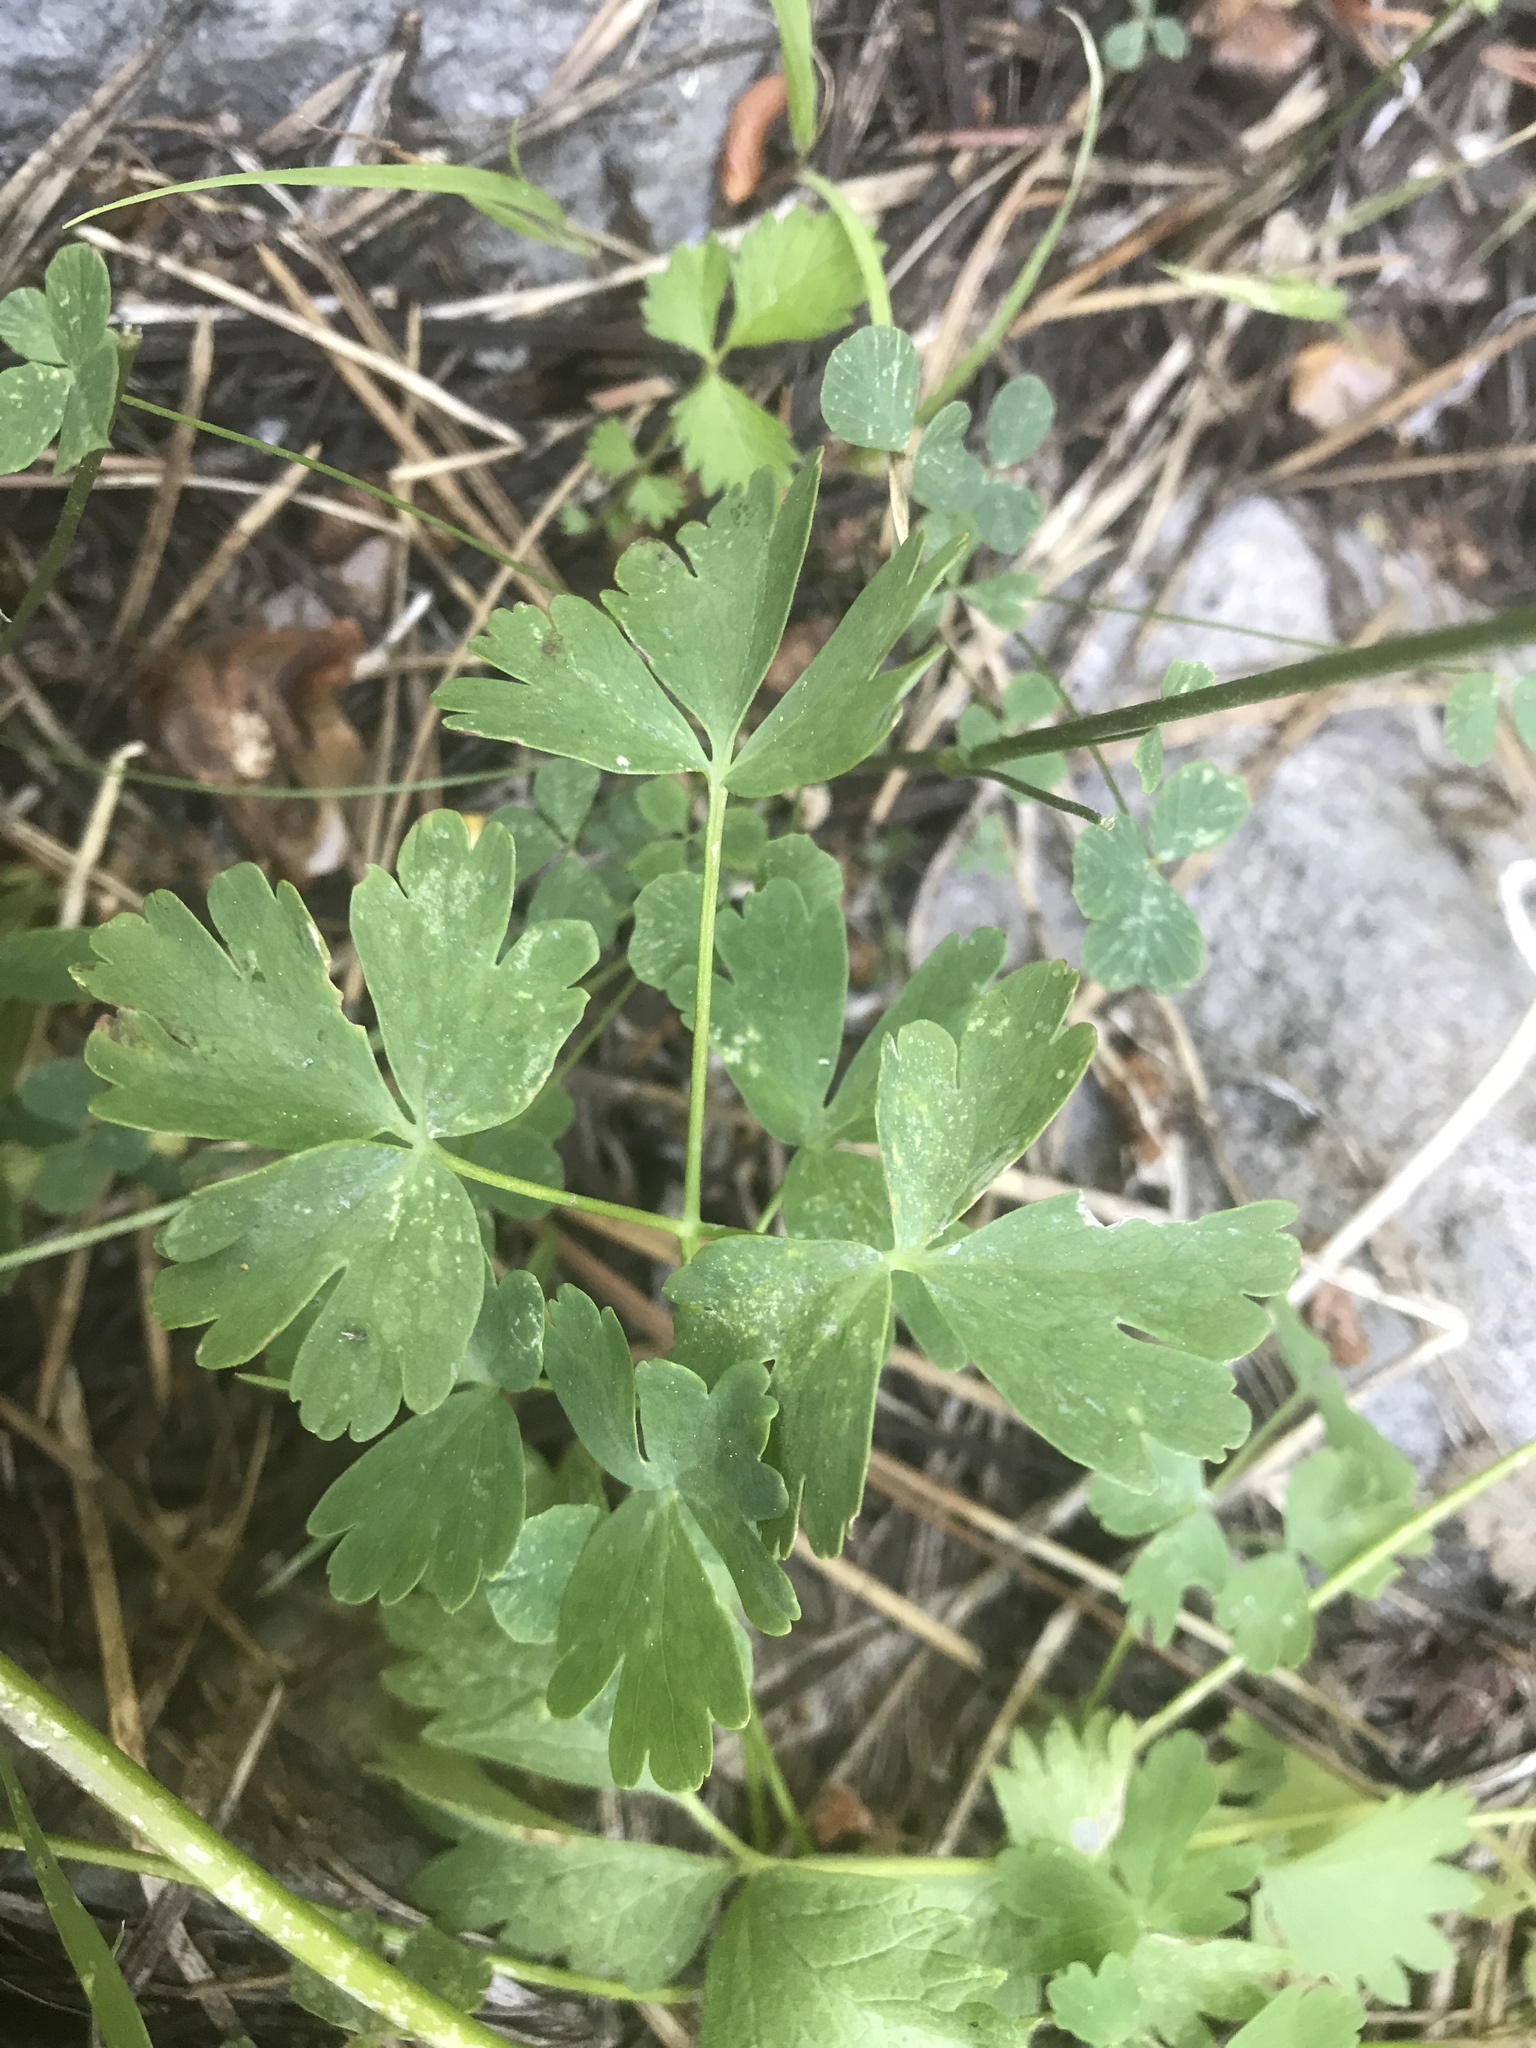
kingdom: Plantae
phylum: Tracheophyta
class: Magnoliopsida
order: Ranunculales
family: Ranunculaceae
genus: Aquilegia
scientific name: Aquilegia formosa
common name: Sitka columbine
